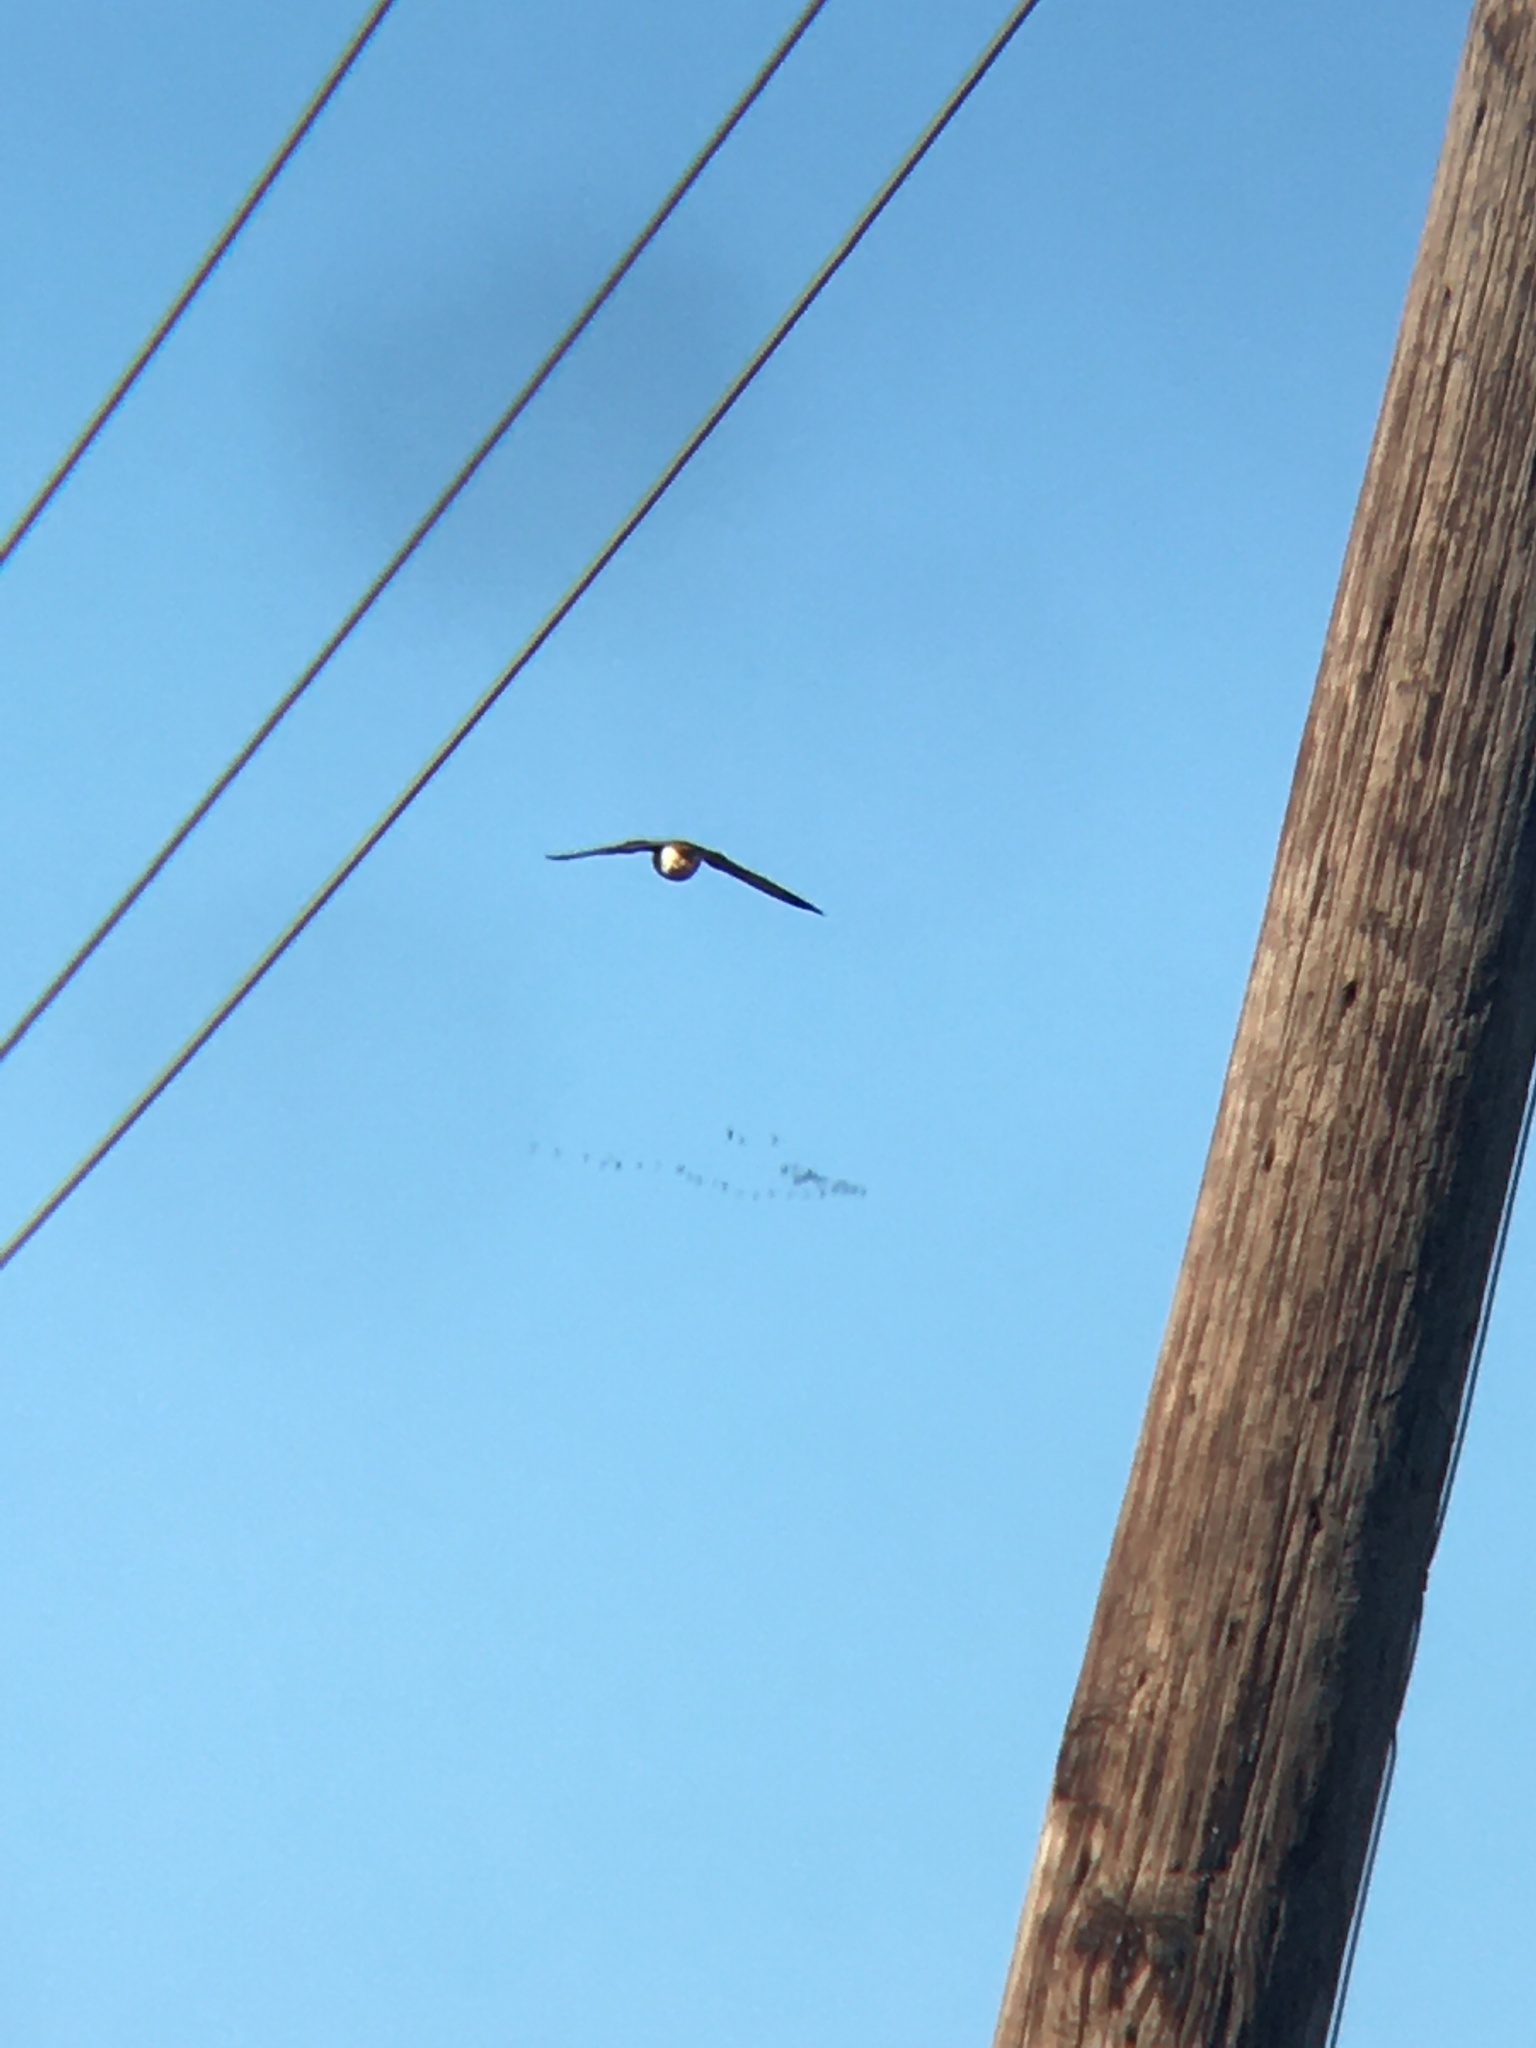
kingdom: Animalia
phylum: Chordata
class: Aves
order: Falconiformes
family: Falconidae
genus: Falco
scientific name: Falco sparverius
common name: American kestrel
